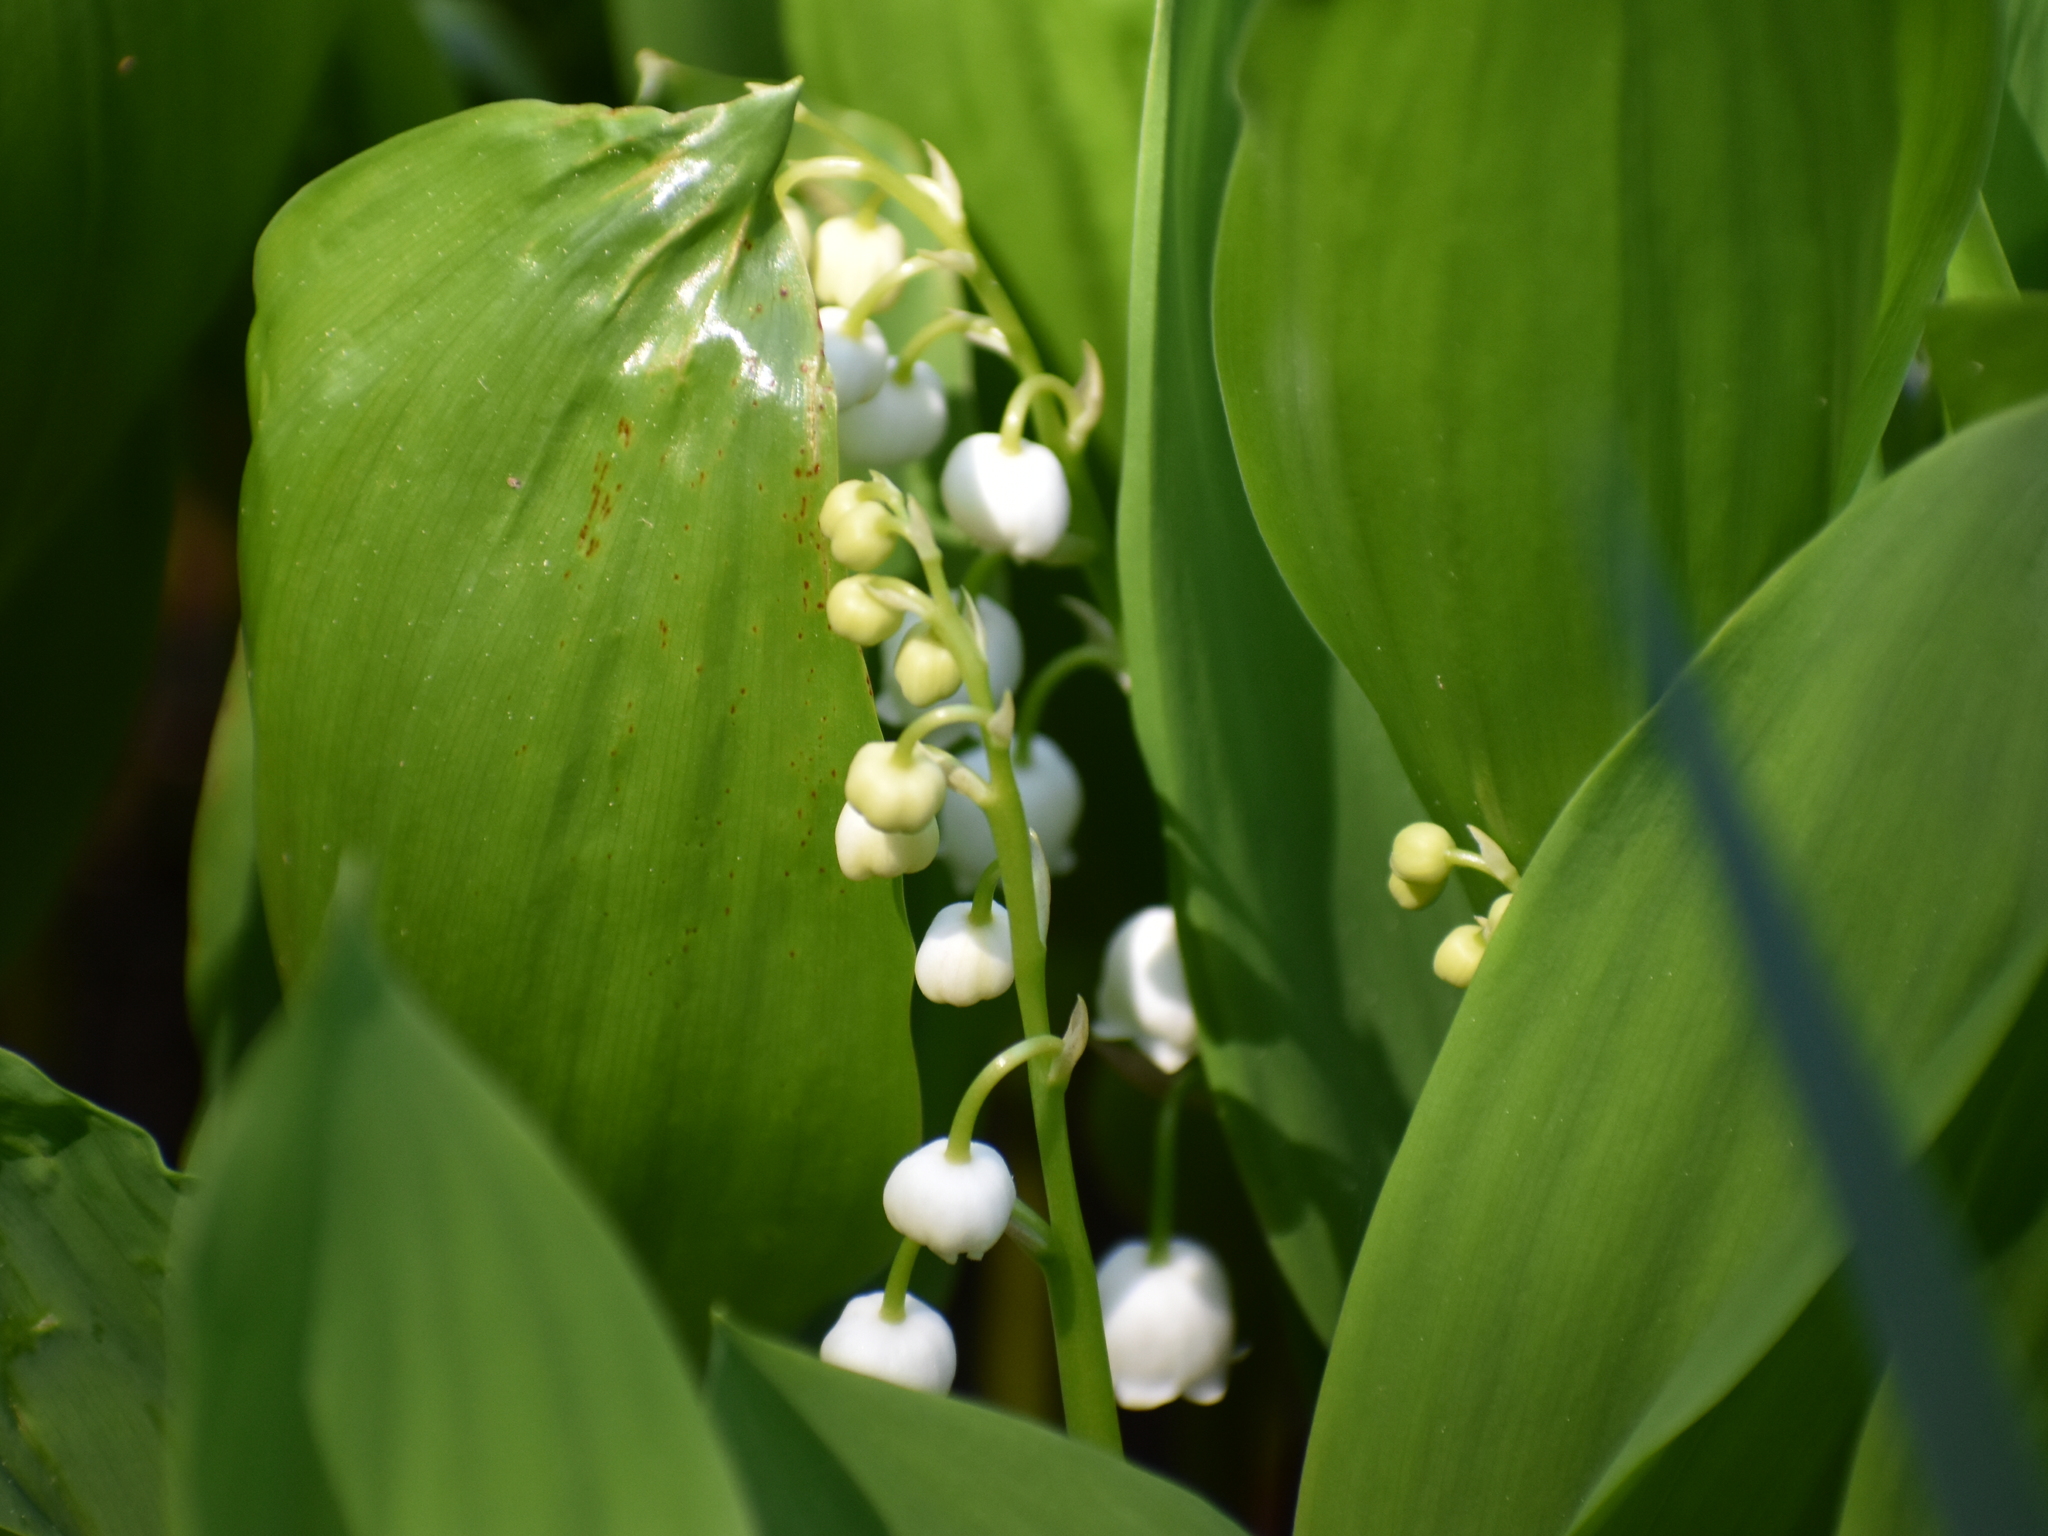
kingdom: Plantae
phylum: Tracheophyta
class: Liliopsida
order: Asparagales
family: Asparagaceae
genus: Convallaria
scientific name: Convallaria majalis
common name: Lily-of-the-valley
